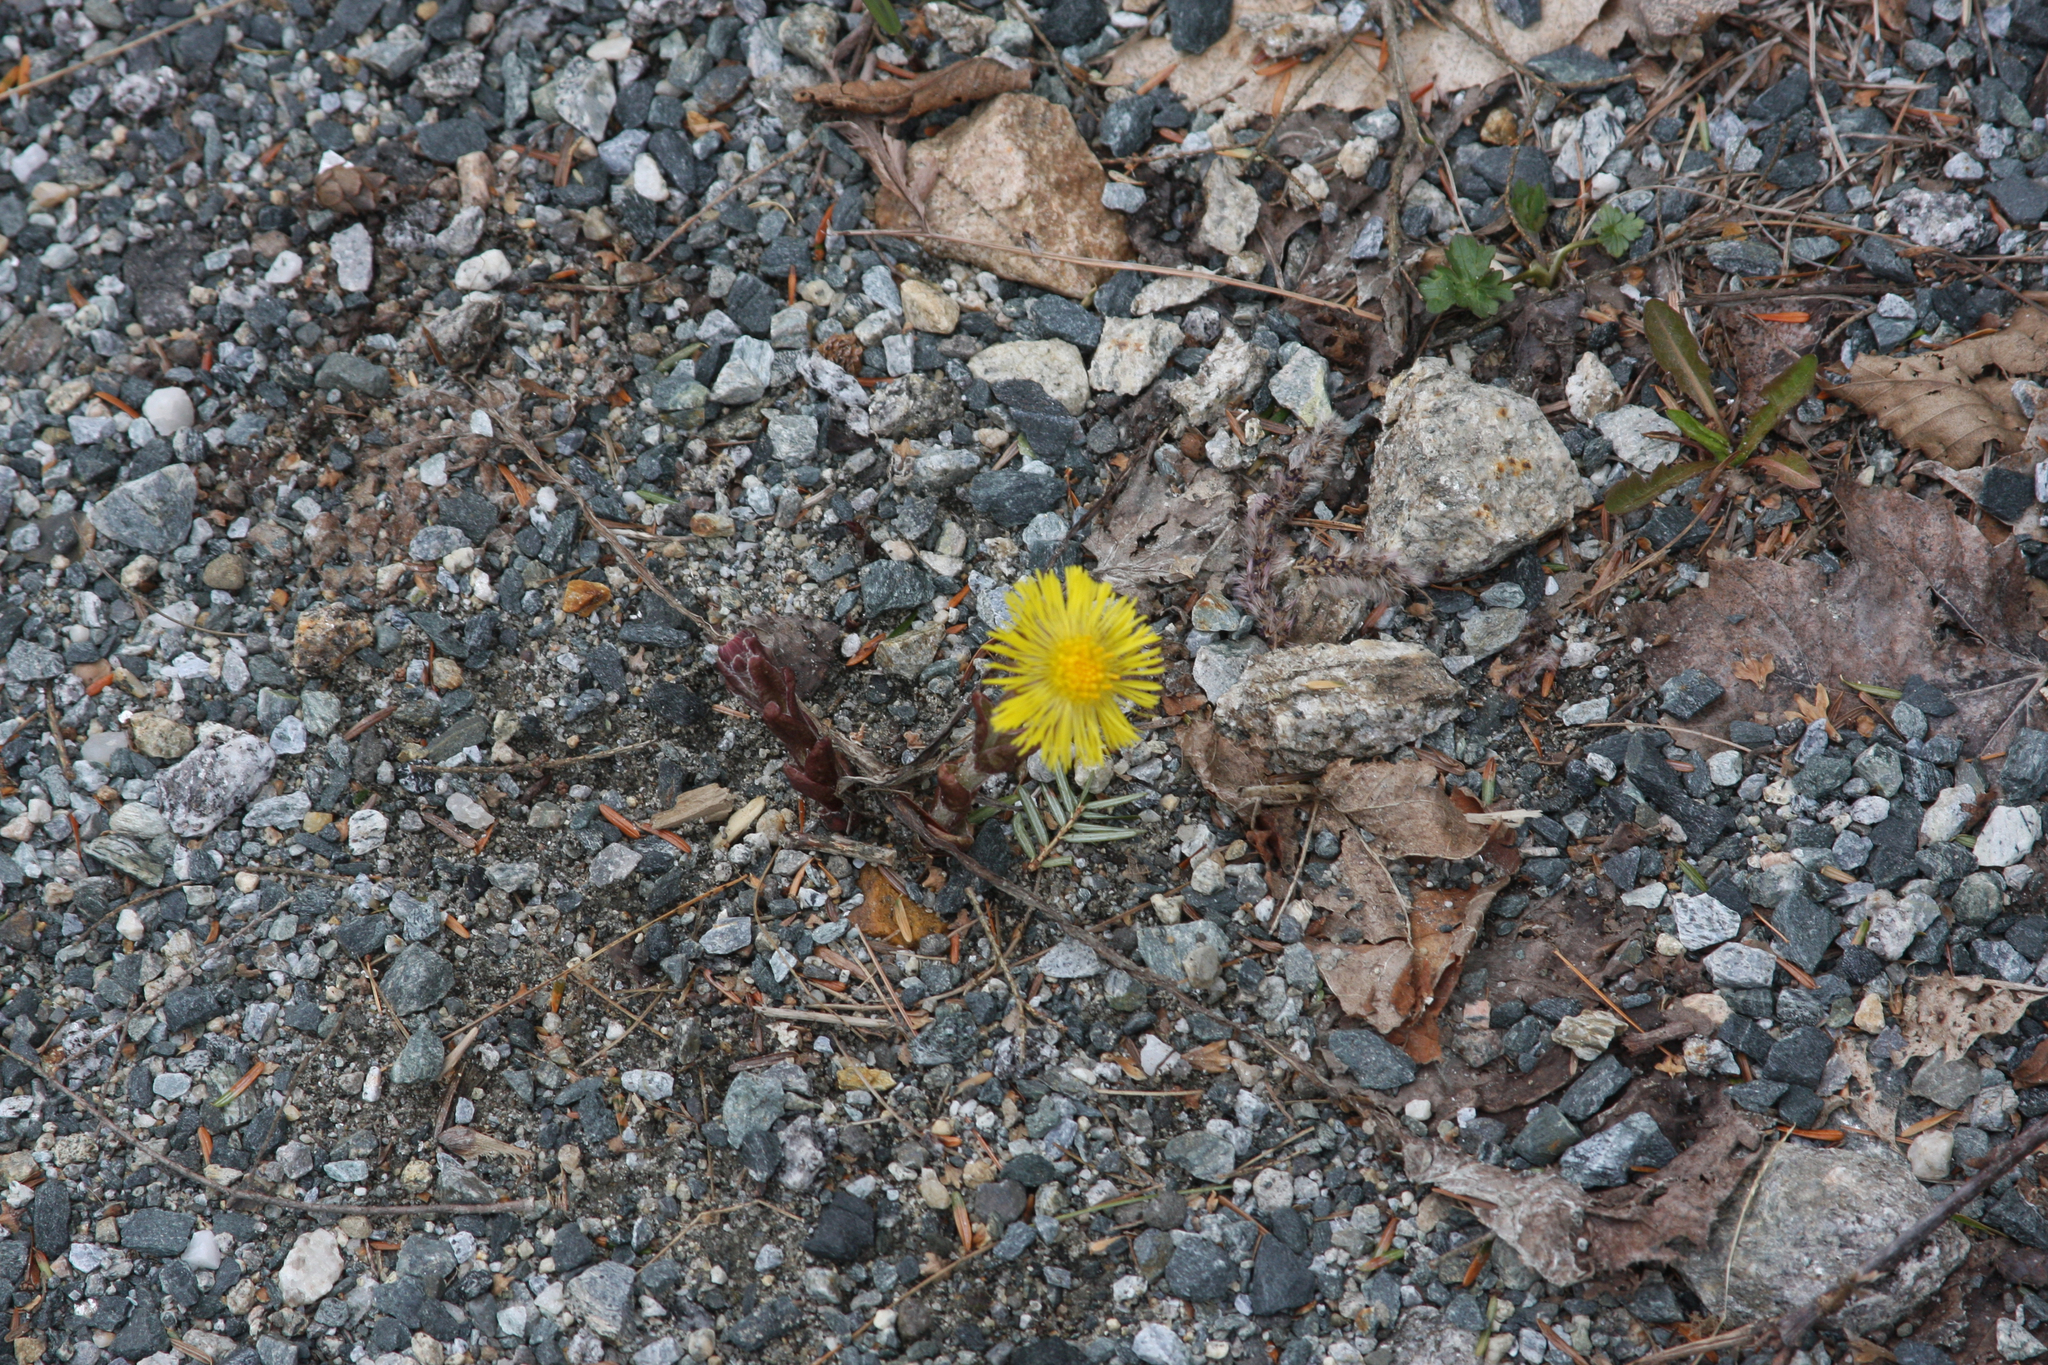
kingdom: Plantae
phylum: Tracheophyta
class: Magnoliopsida
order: Asterales
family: Asteraceae
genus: Tussilago
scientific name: Tussilago farfara
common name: Coltsfoot
